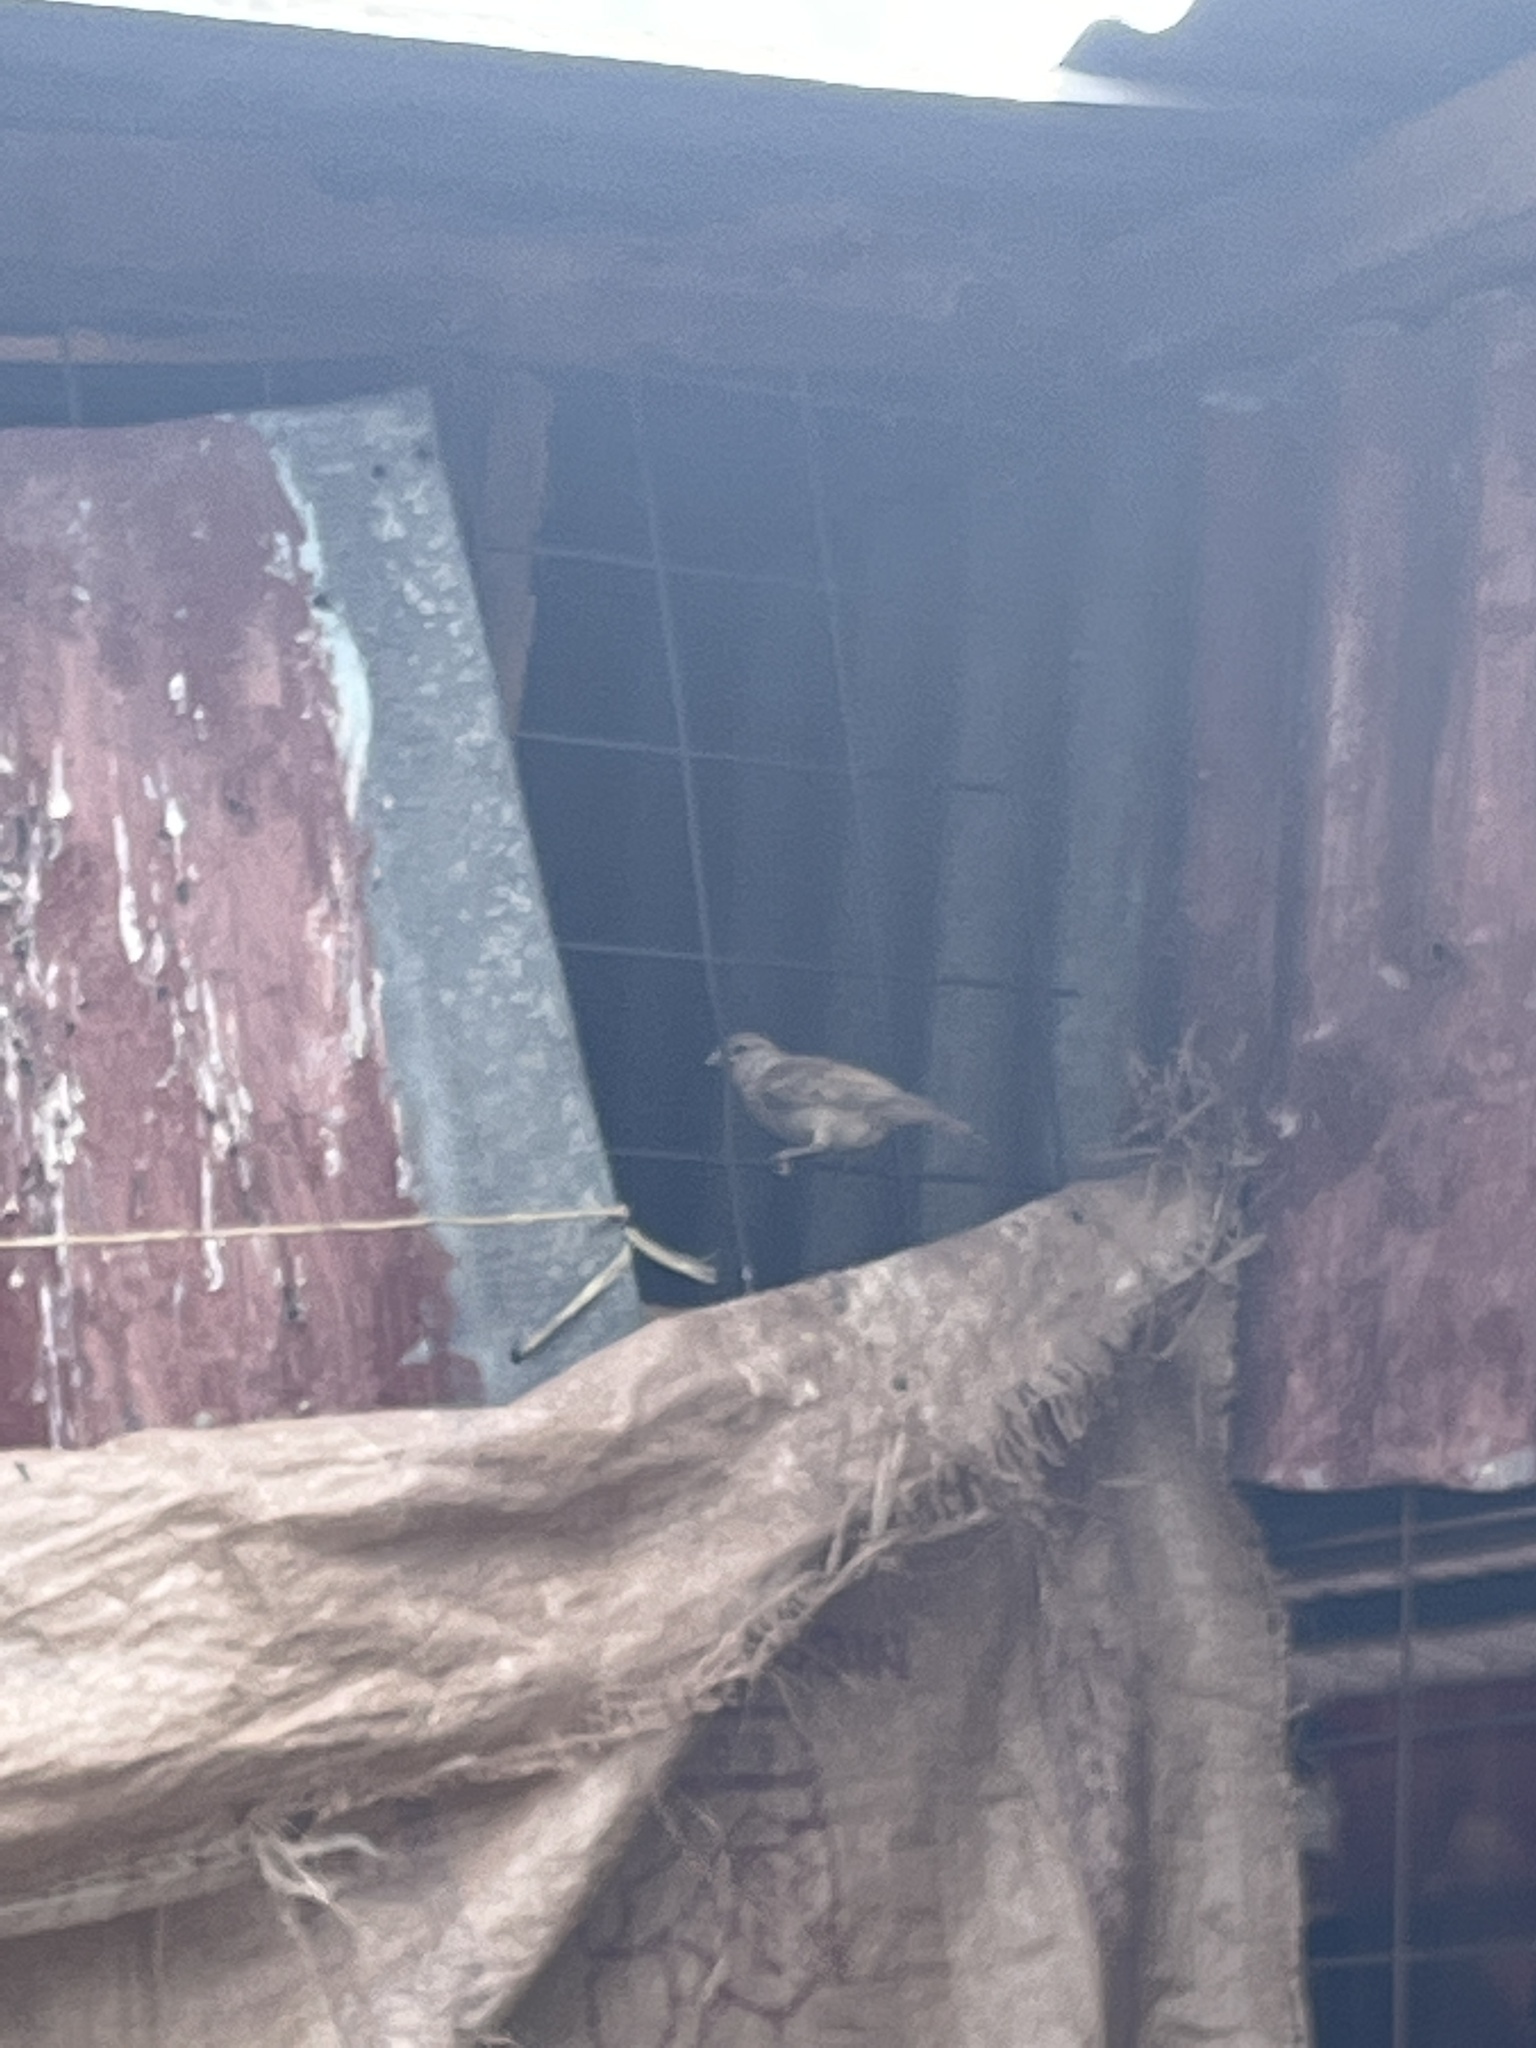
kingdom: Animalia
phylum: Chordata
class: Aves
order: Passeriformes
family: Passeridae
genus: Passer
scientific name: Passer domesticus
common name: House sparrow
